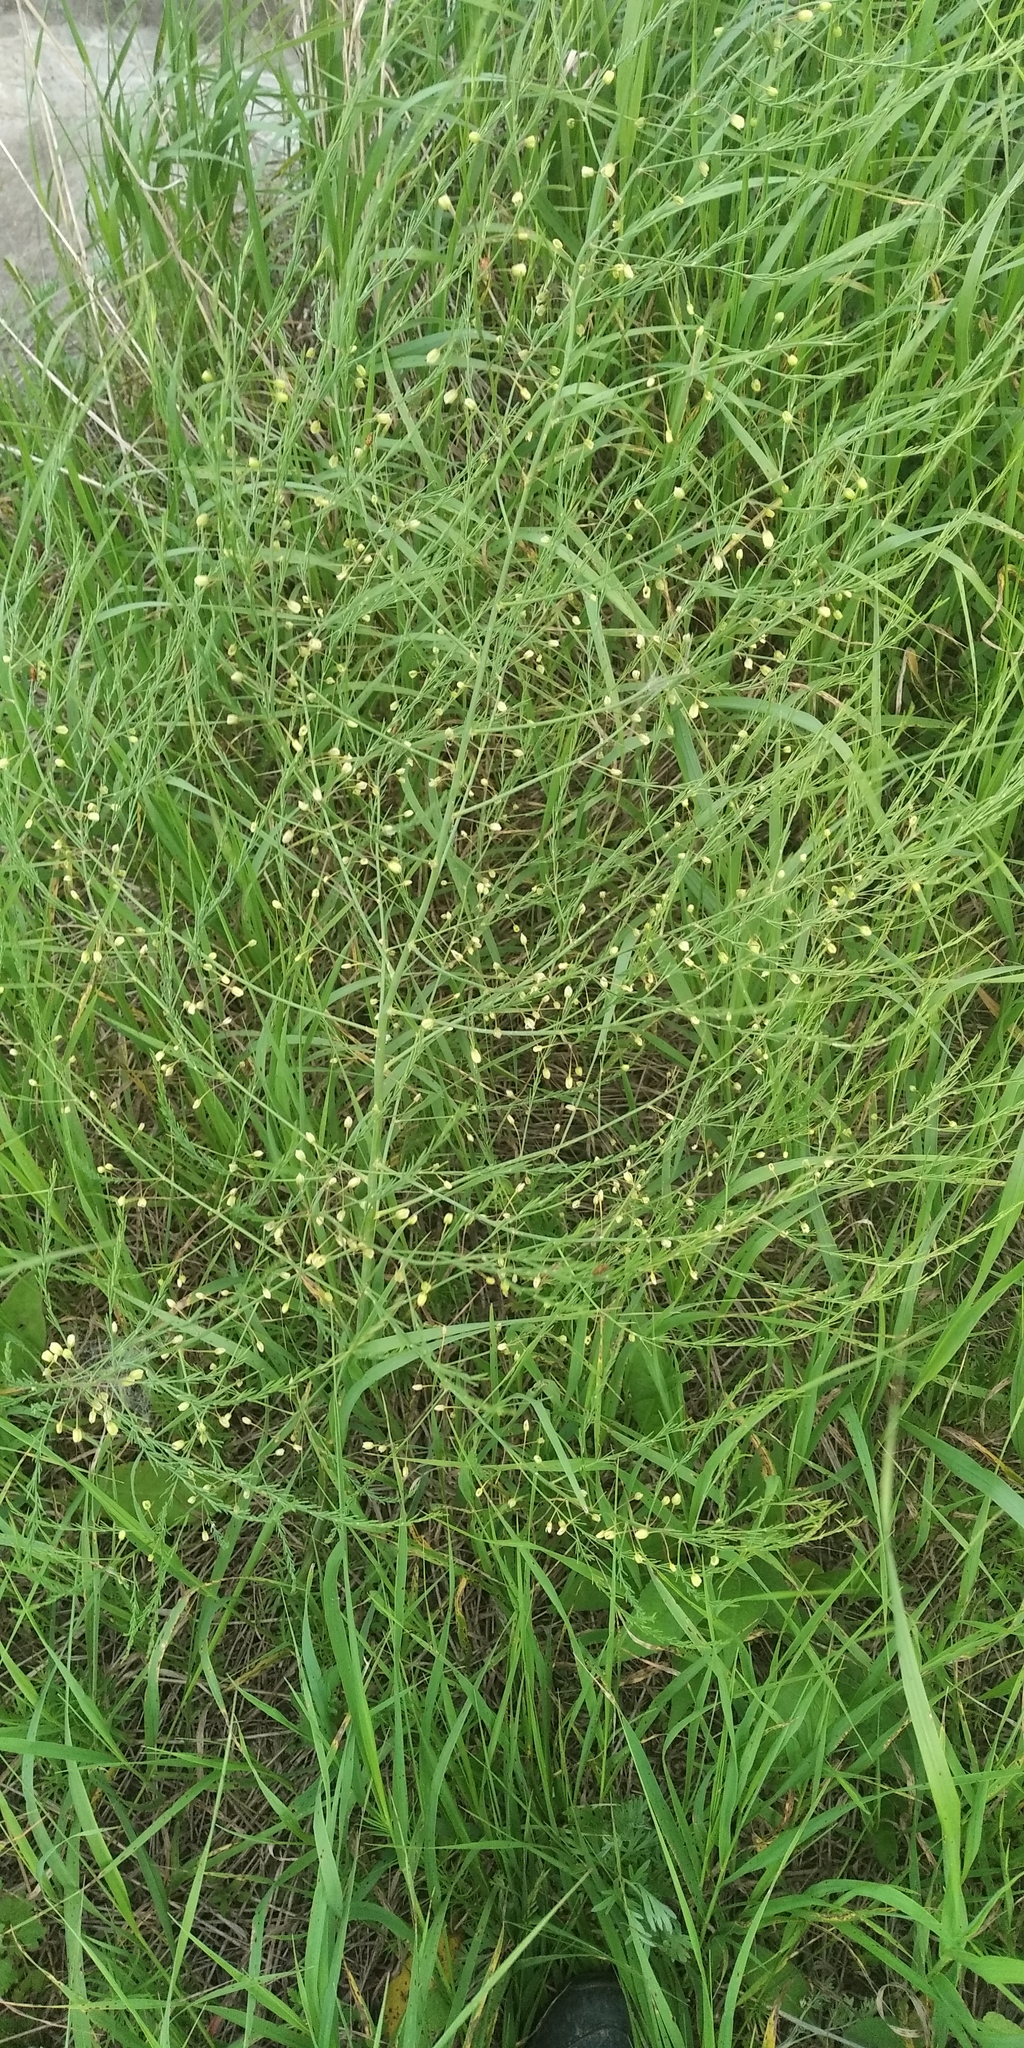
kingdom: Plantae
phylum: Tracheophyta
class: Liliopsida
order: Asparagales
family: Asparagaceae
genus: Asparagus
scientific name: Asparagus officinalis
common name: Garden asparagus
